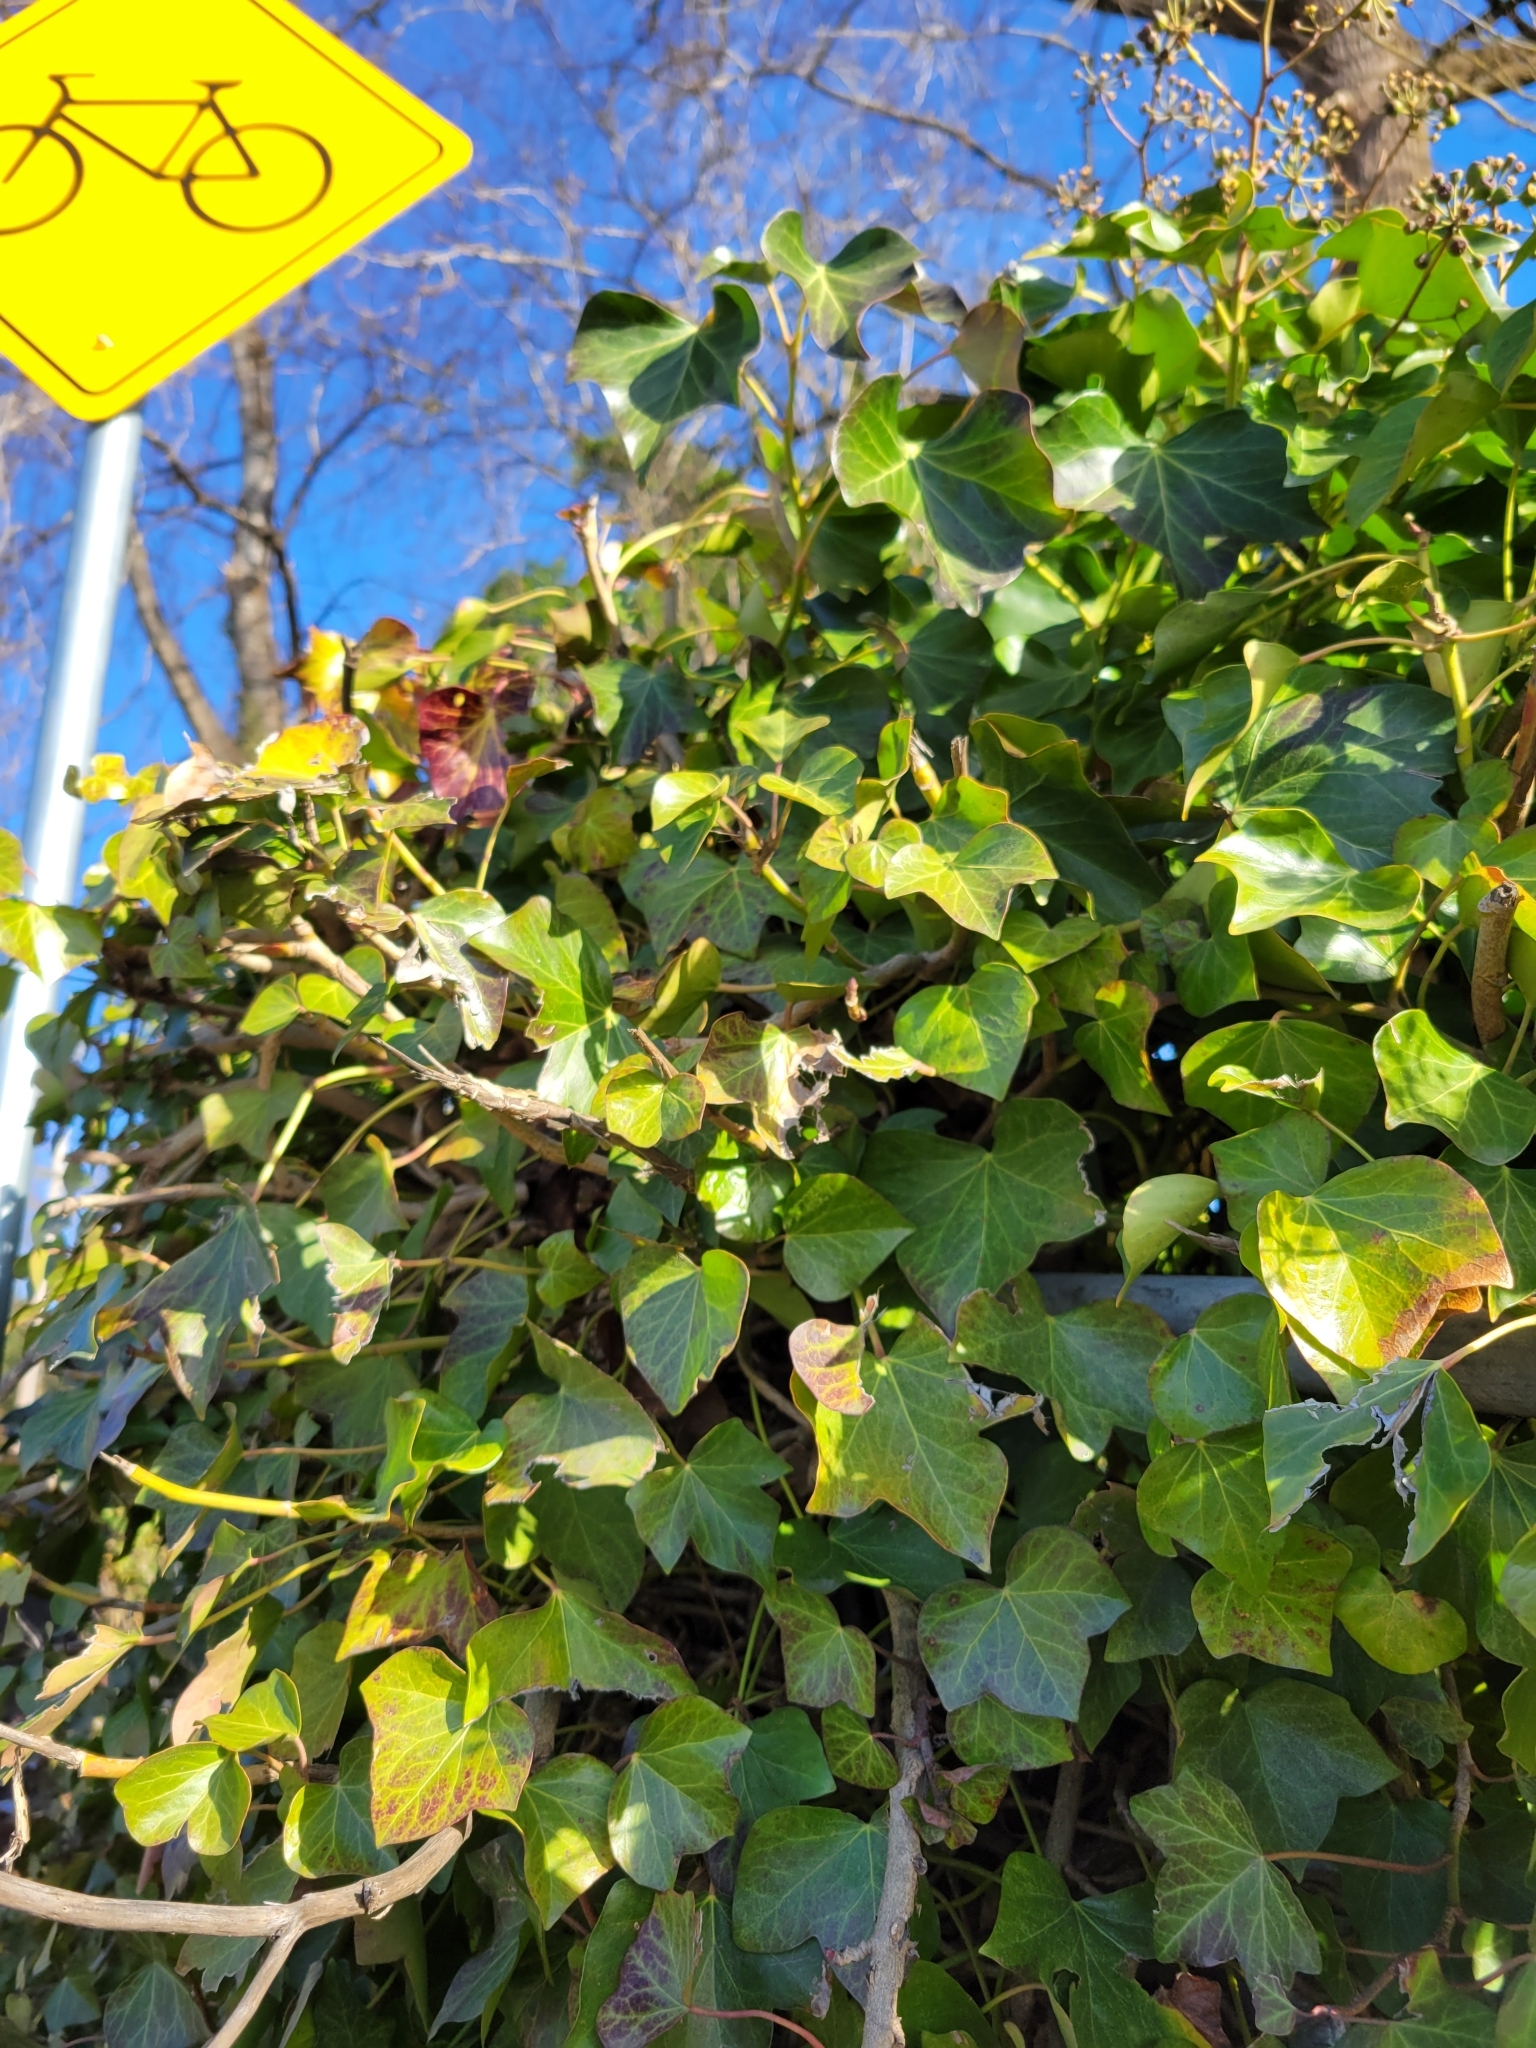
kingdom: Plantae
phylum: Tracheophyta
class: Magnoliopsida
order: Apiales
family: Araliaceae
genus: Hedera
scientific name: Hedera helix
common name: Ivy
